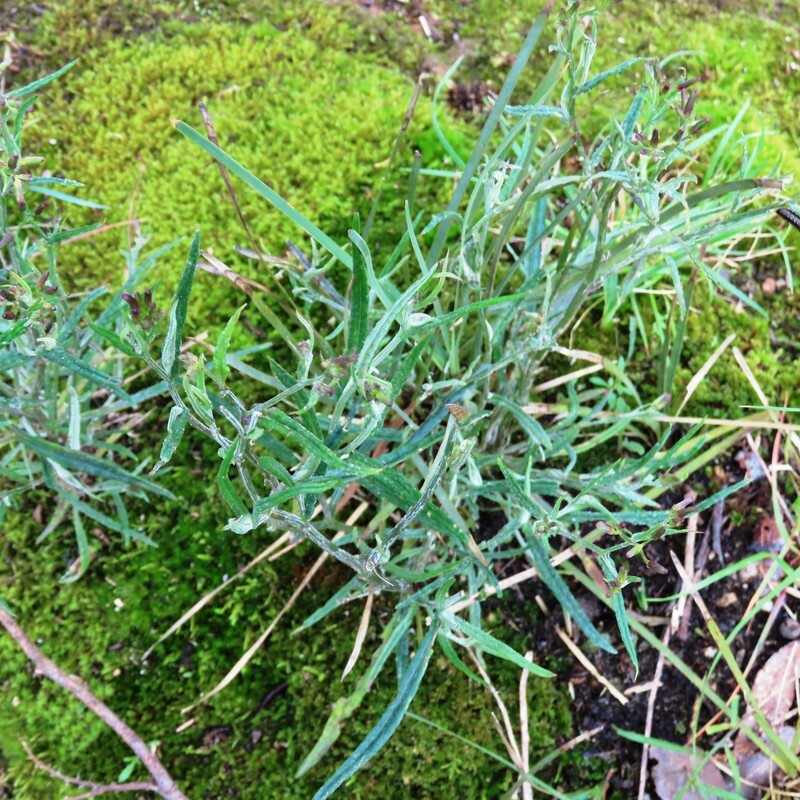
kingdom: Plantae
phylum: Tracheophyta
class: Magnoliopsida
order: Asterales
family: Asteraceae
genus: Senecio
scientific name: Senecio quadridentatus
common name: Cotton fireweed
